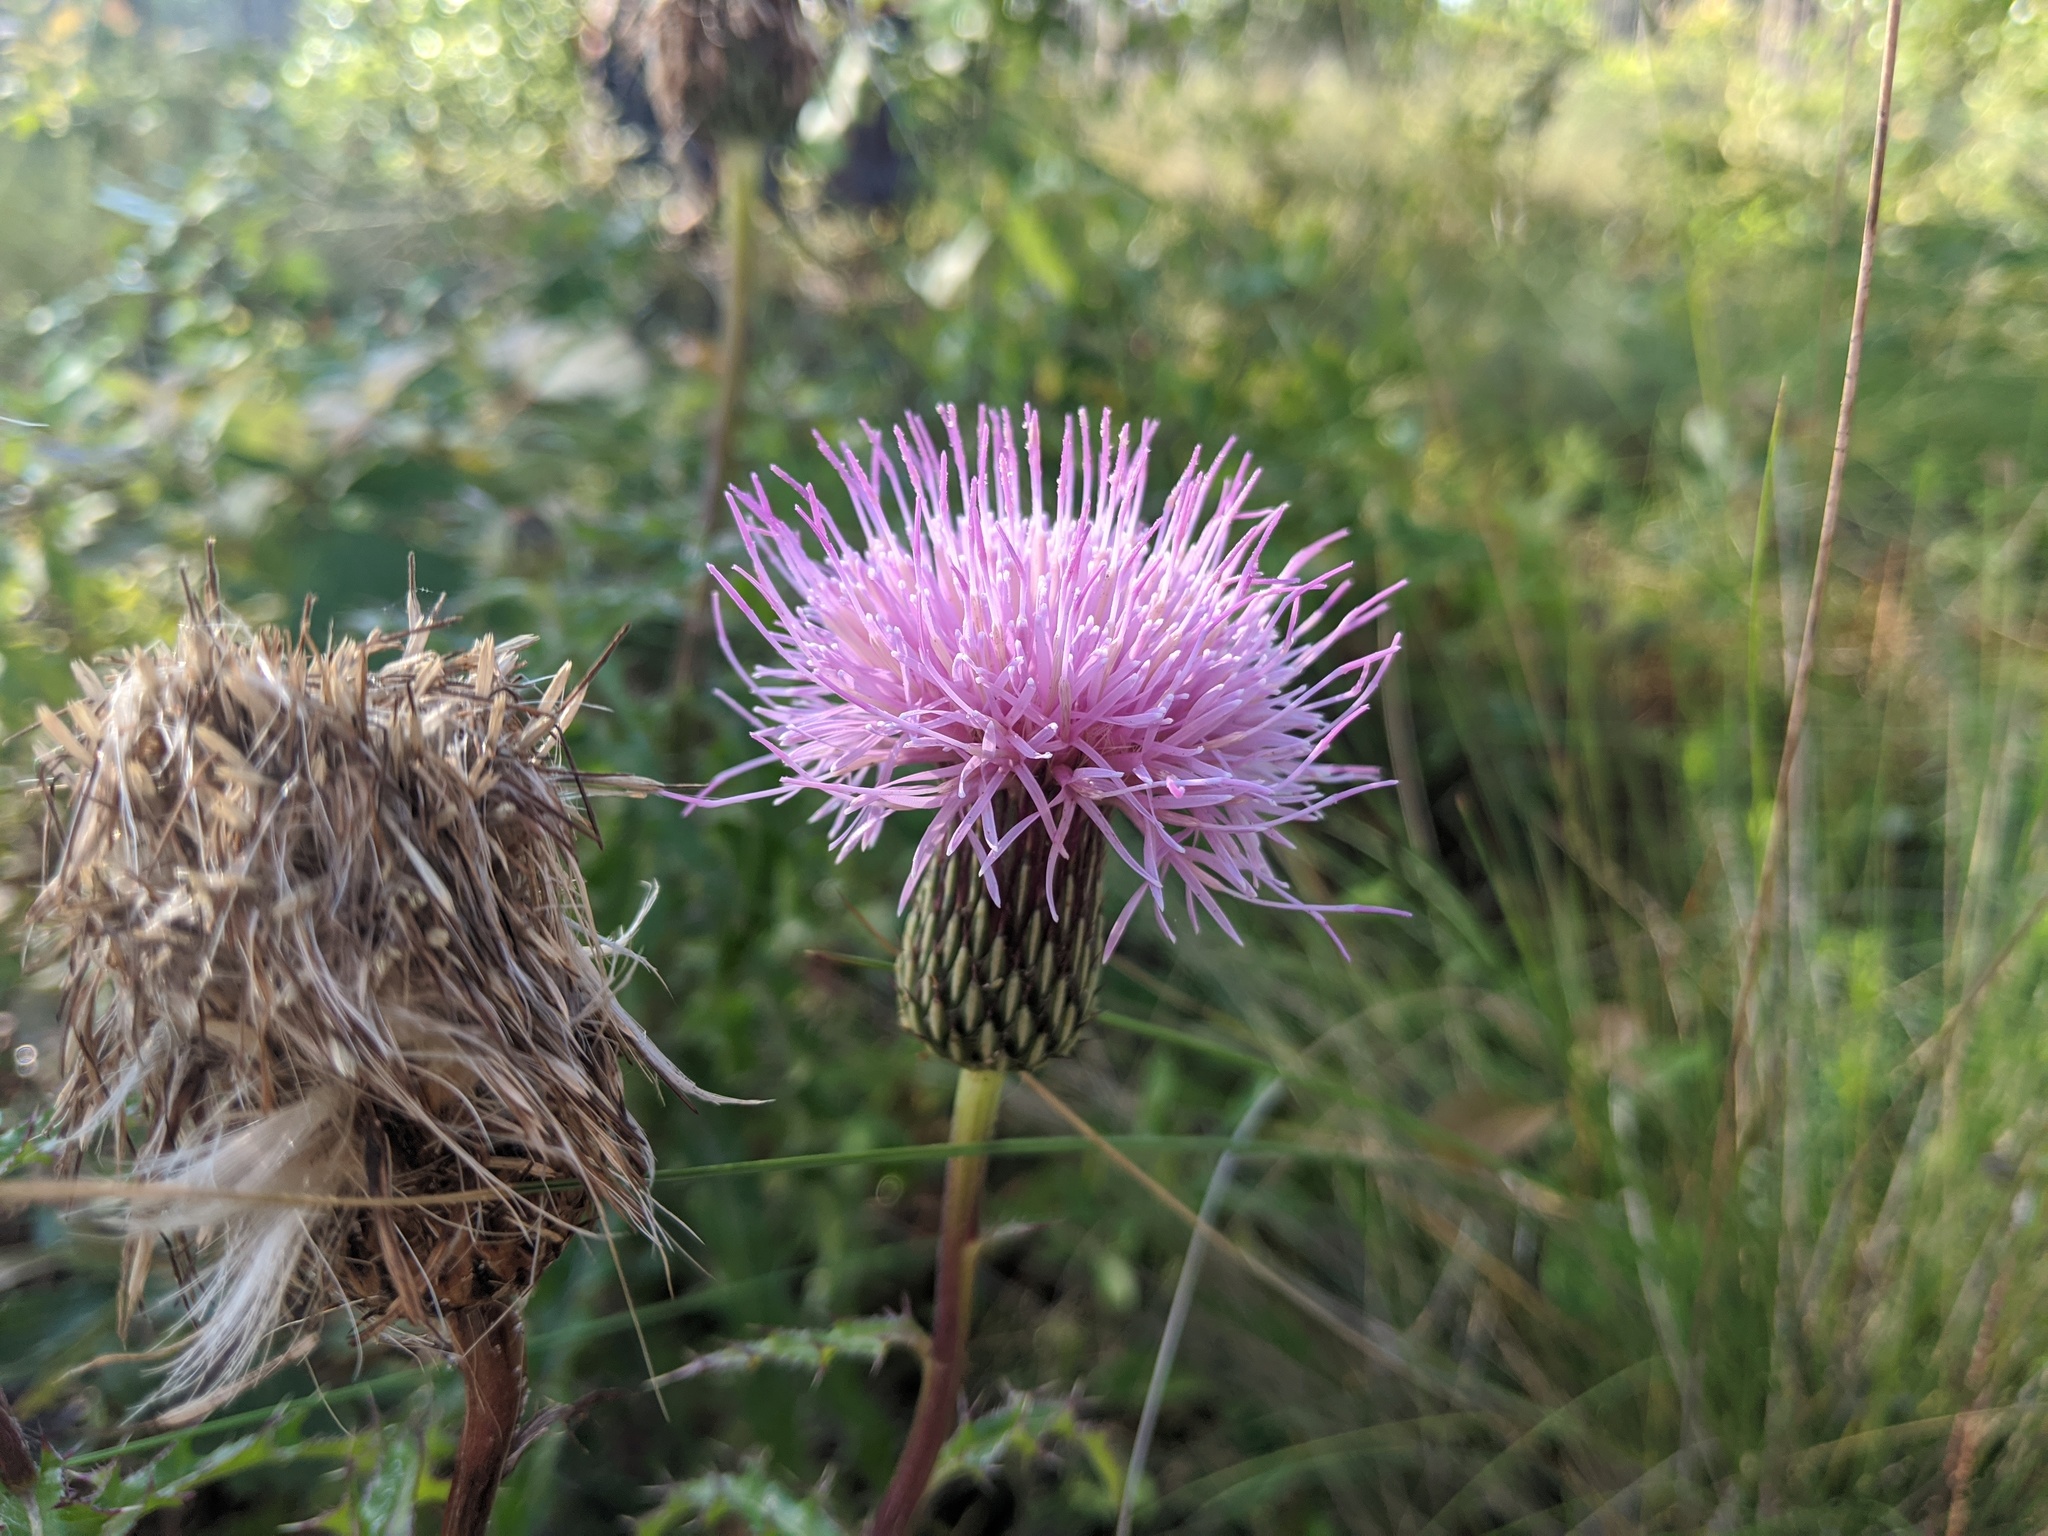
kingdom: Plantae
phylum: Tracheophyta
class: Magnoliopsida
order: Asterales
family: Asteraceae
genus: Cirsium
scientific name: Cirsium repandum
